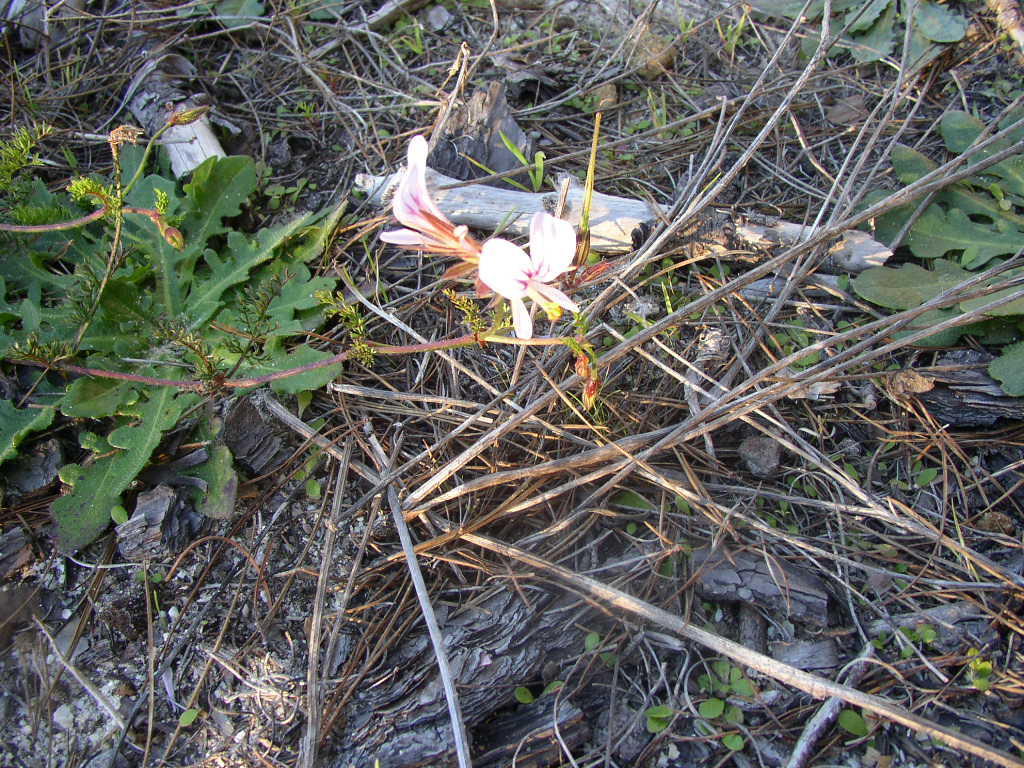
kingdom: Plantae
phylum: Tracheophyta
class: Magnoliopsida
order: Geraniales
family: Geraniaceae
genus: Pelargonium
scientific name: Pelargonium myrrhifolium
